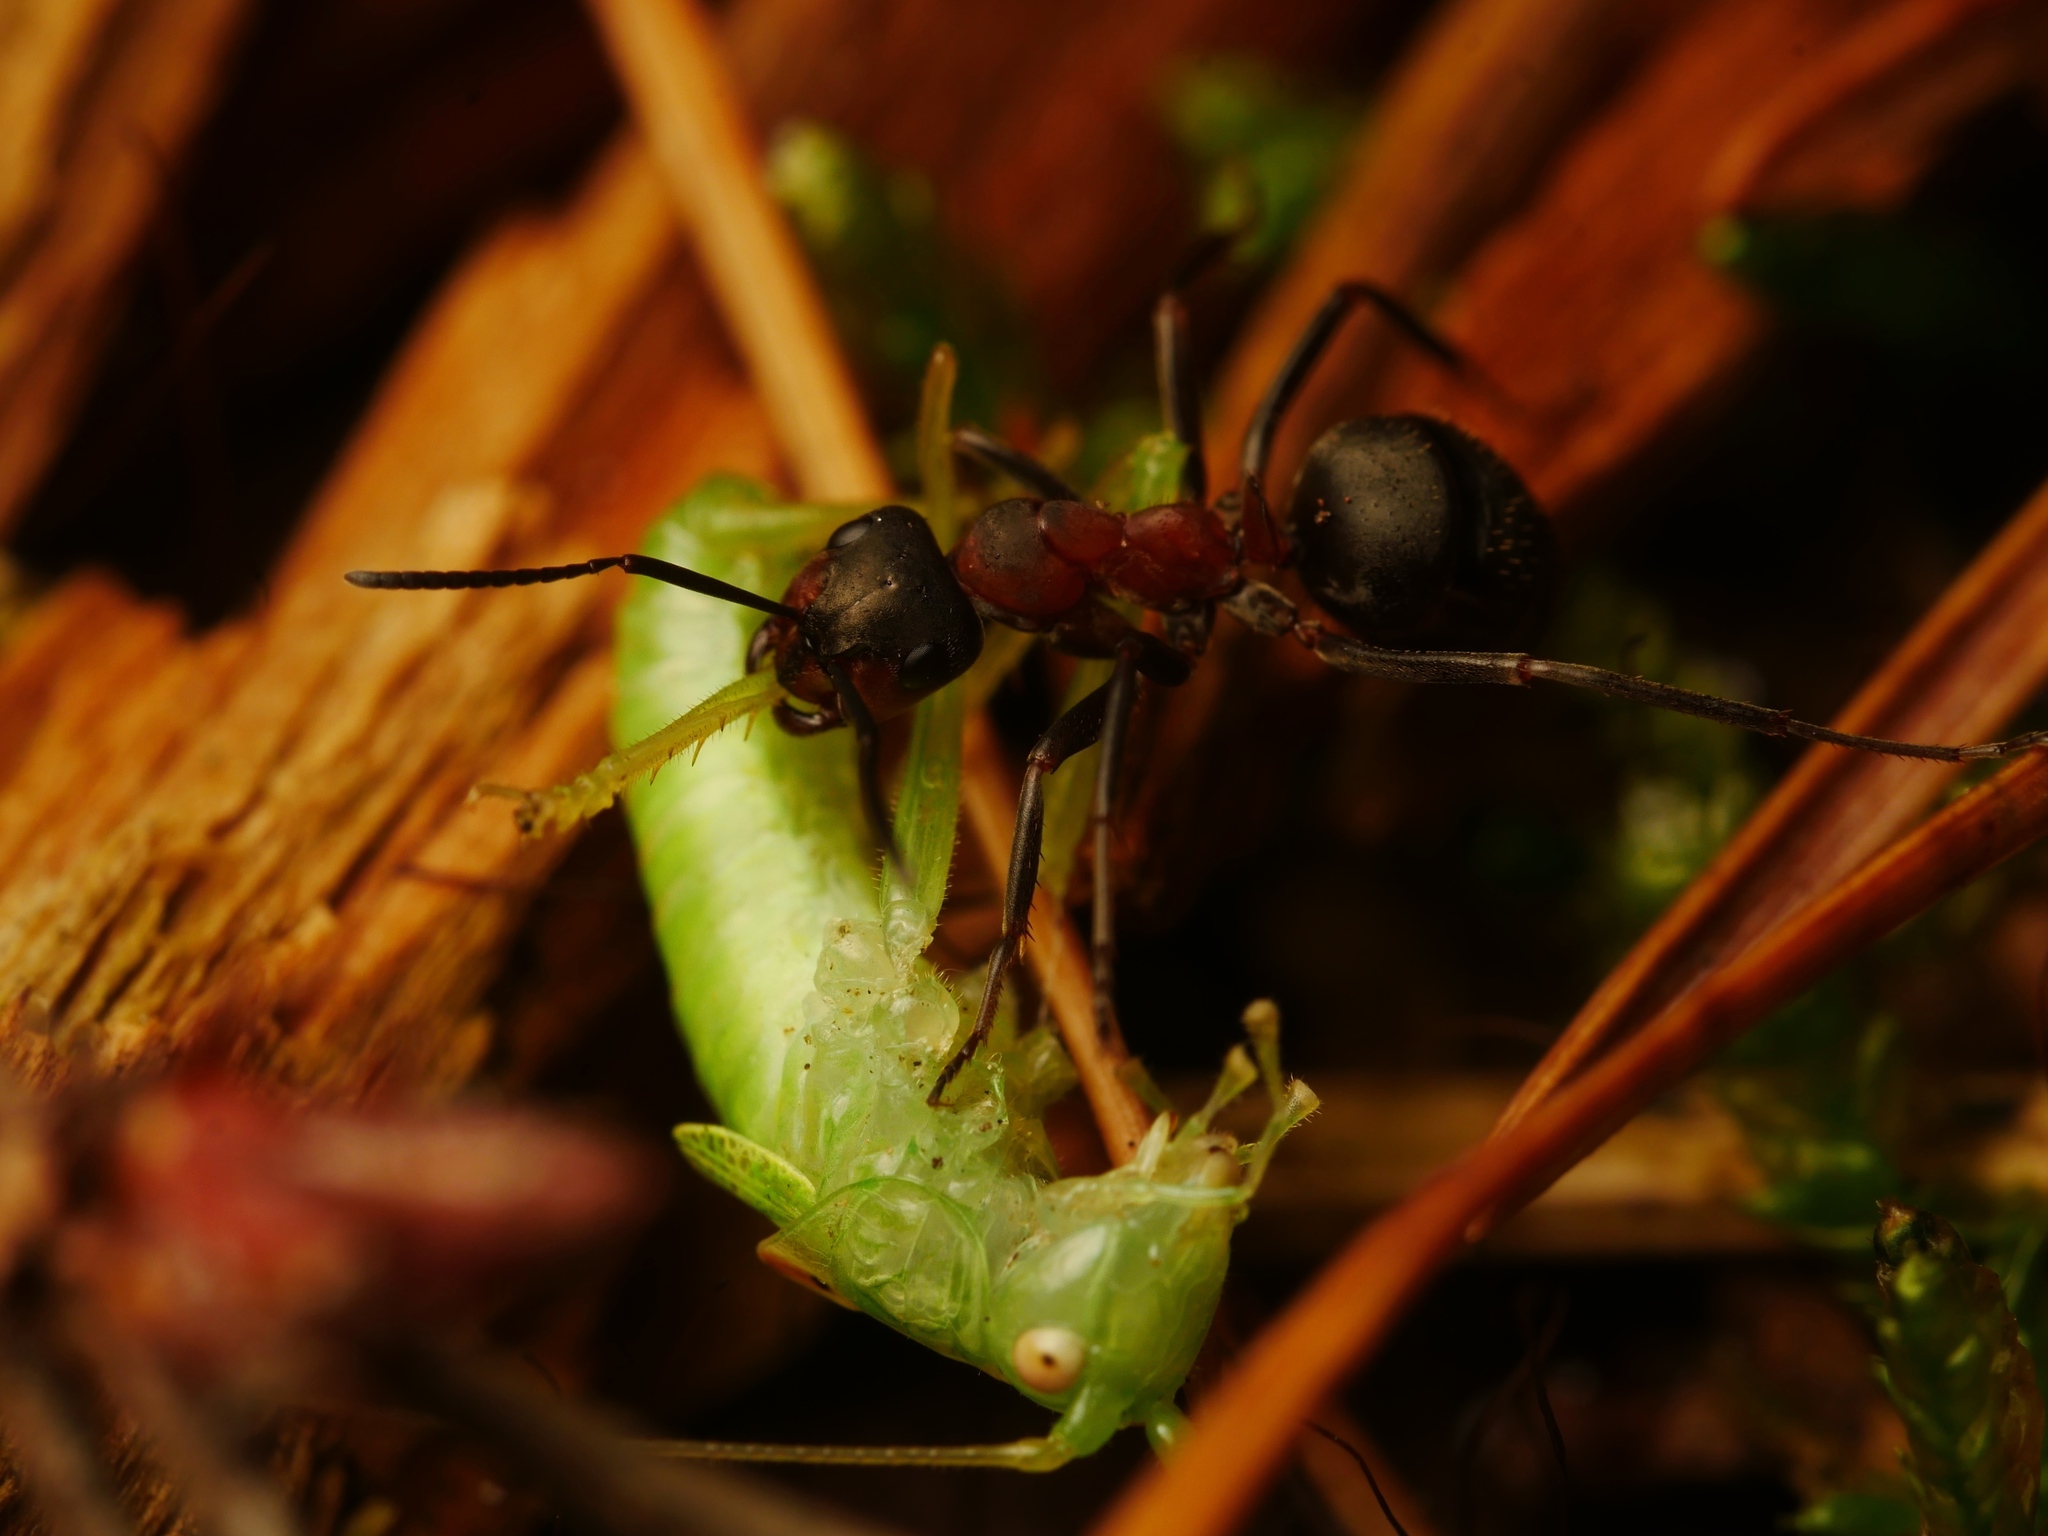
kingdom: Animalia
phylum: Arthropoda
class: Insecta
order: Orthoptera
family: Tettigoniidae
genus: Meconema
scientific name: Meconema meridionale
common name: Southern oak bush-cricket
